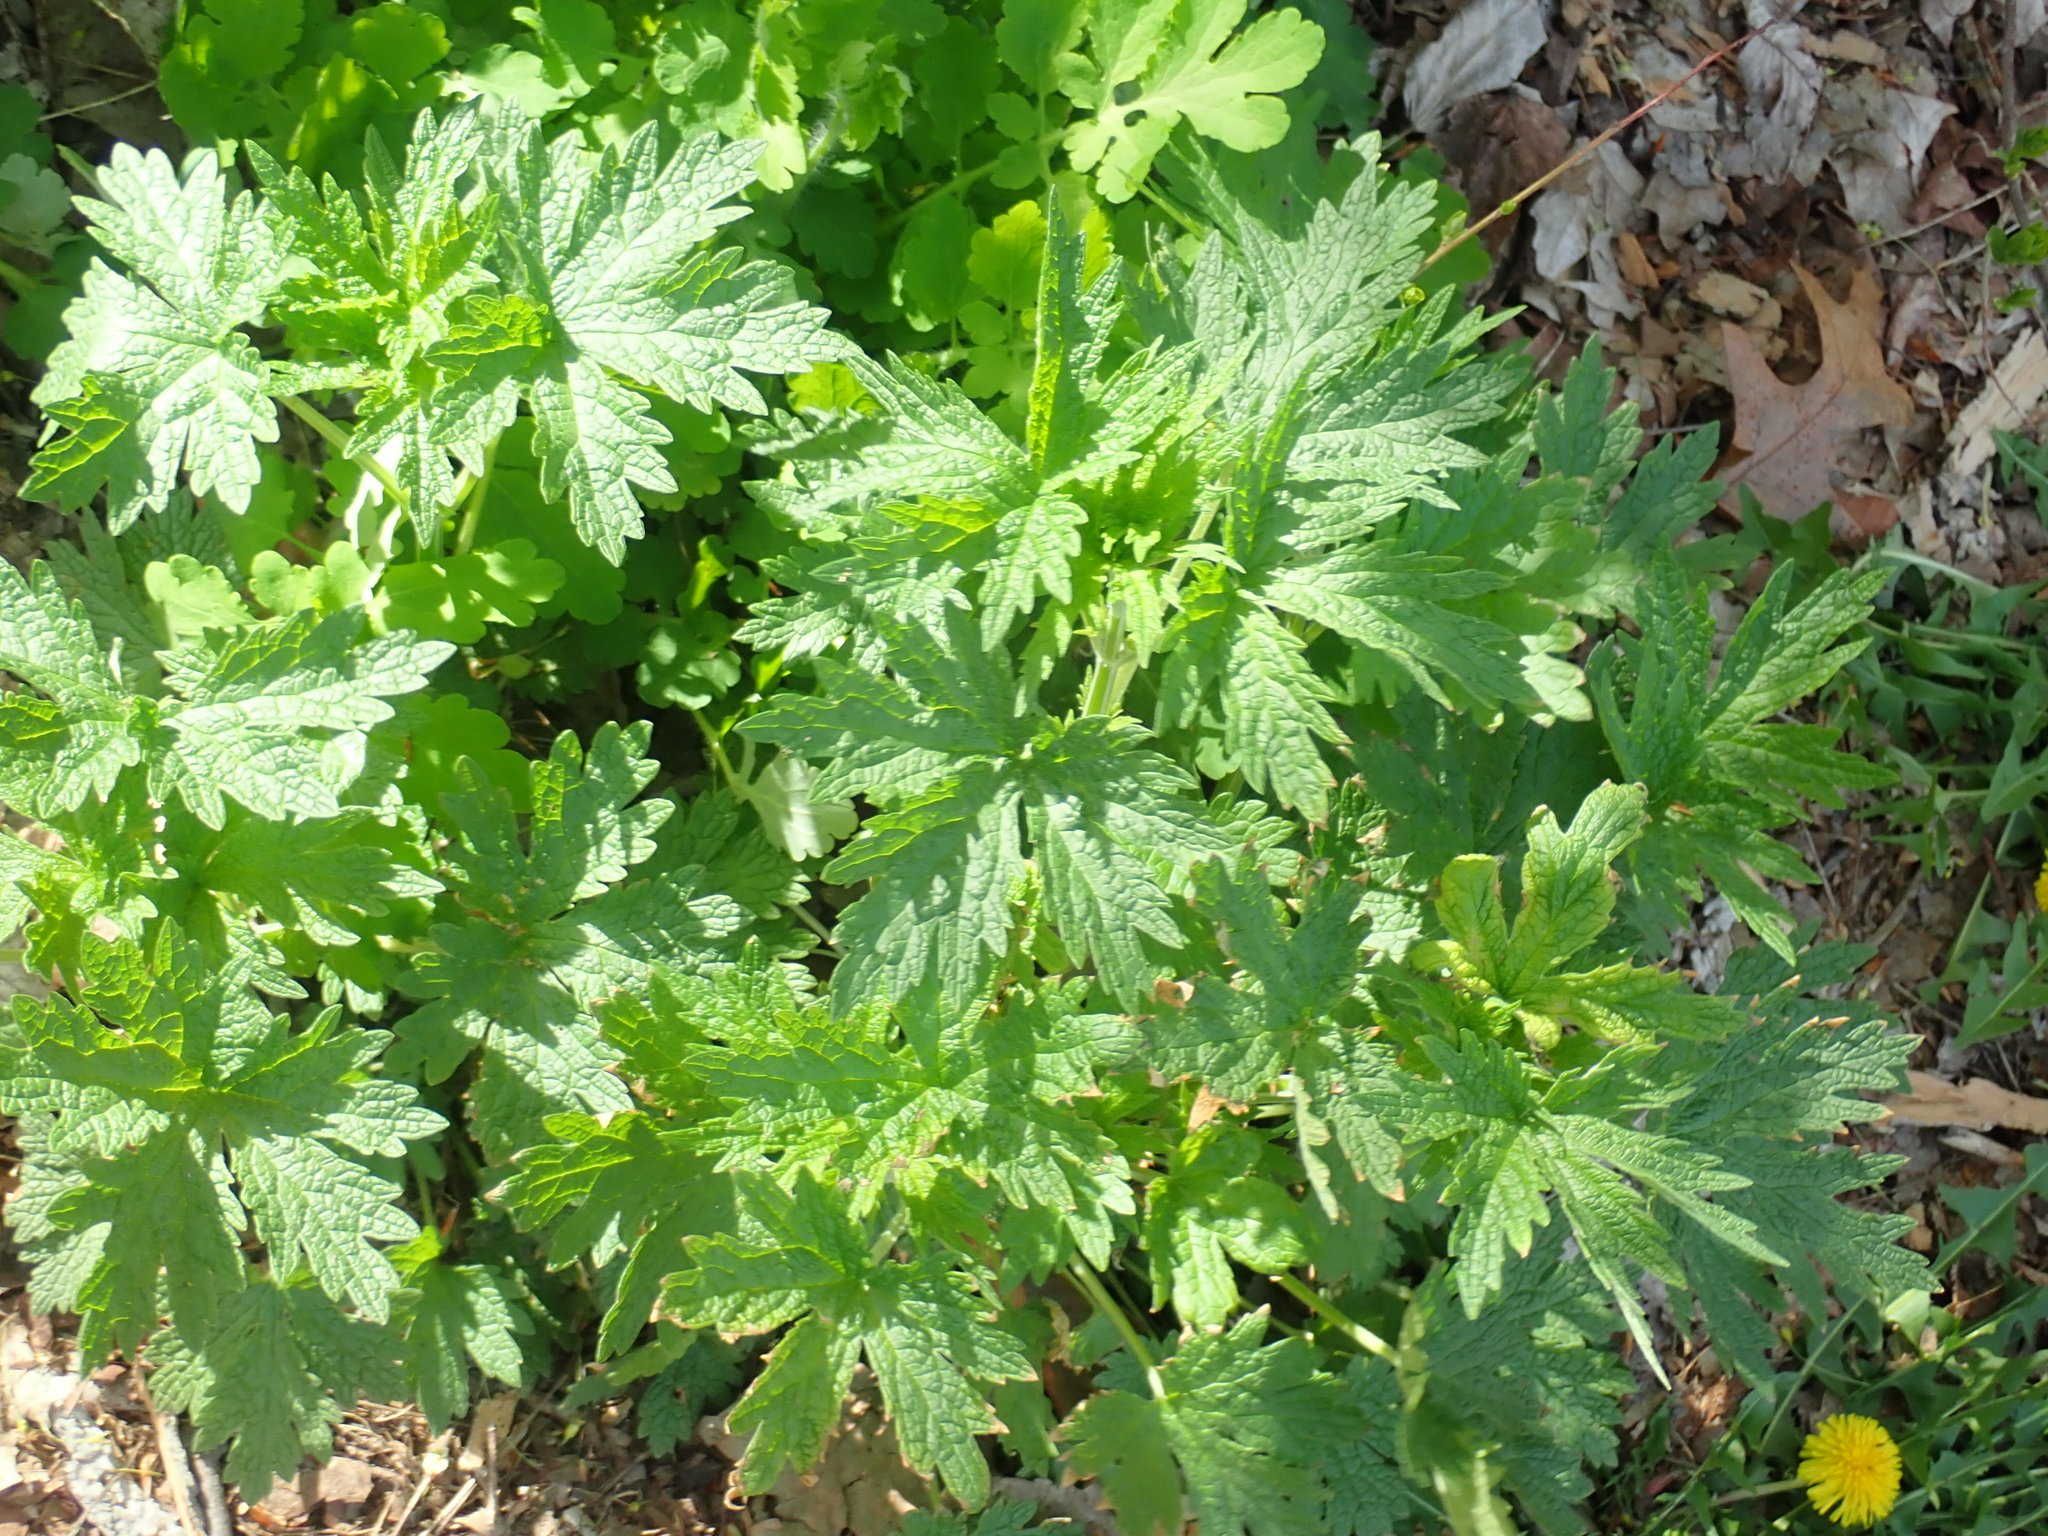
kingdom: Plantae
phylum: Tracheophyta
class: Magnoliopsida
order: Lamiales
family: Lamiaceae
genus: Leonurus
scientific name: Leonurus cardiaca
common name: Motherwort
